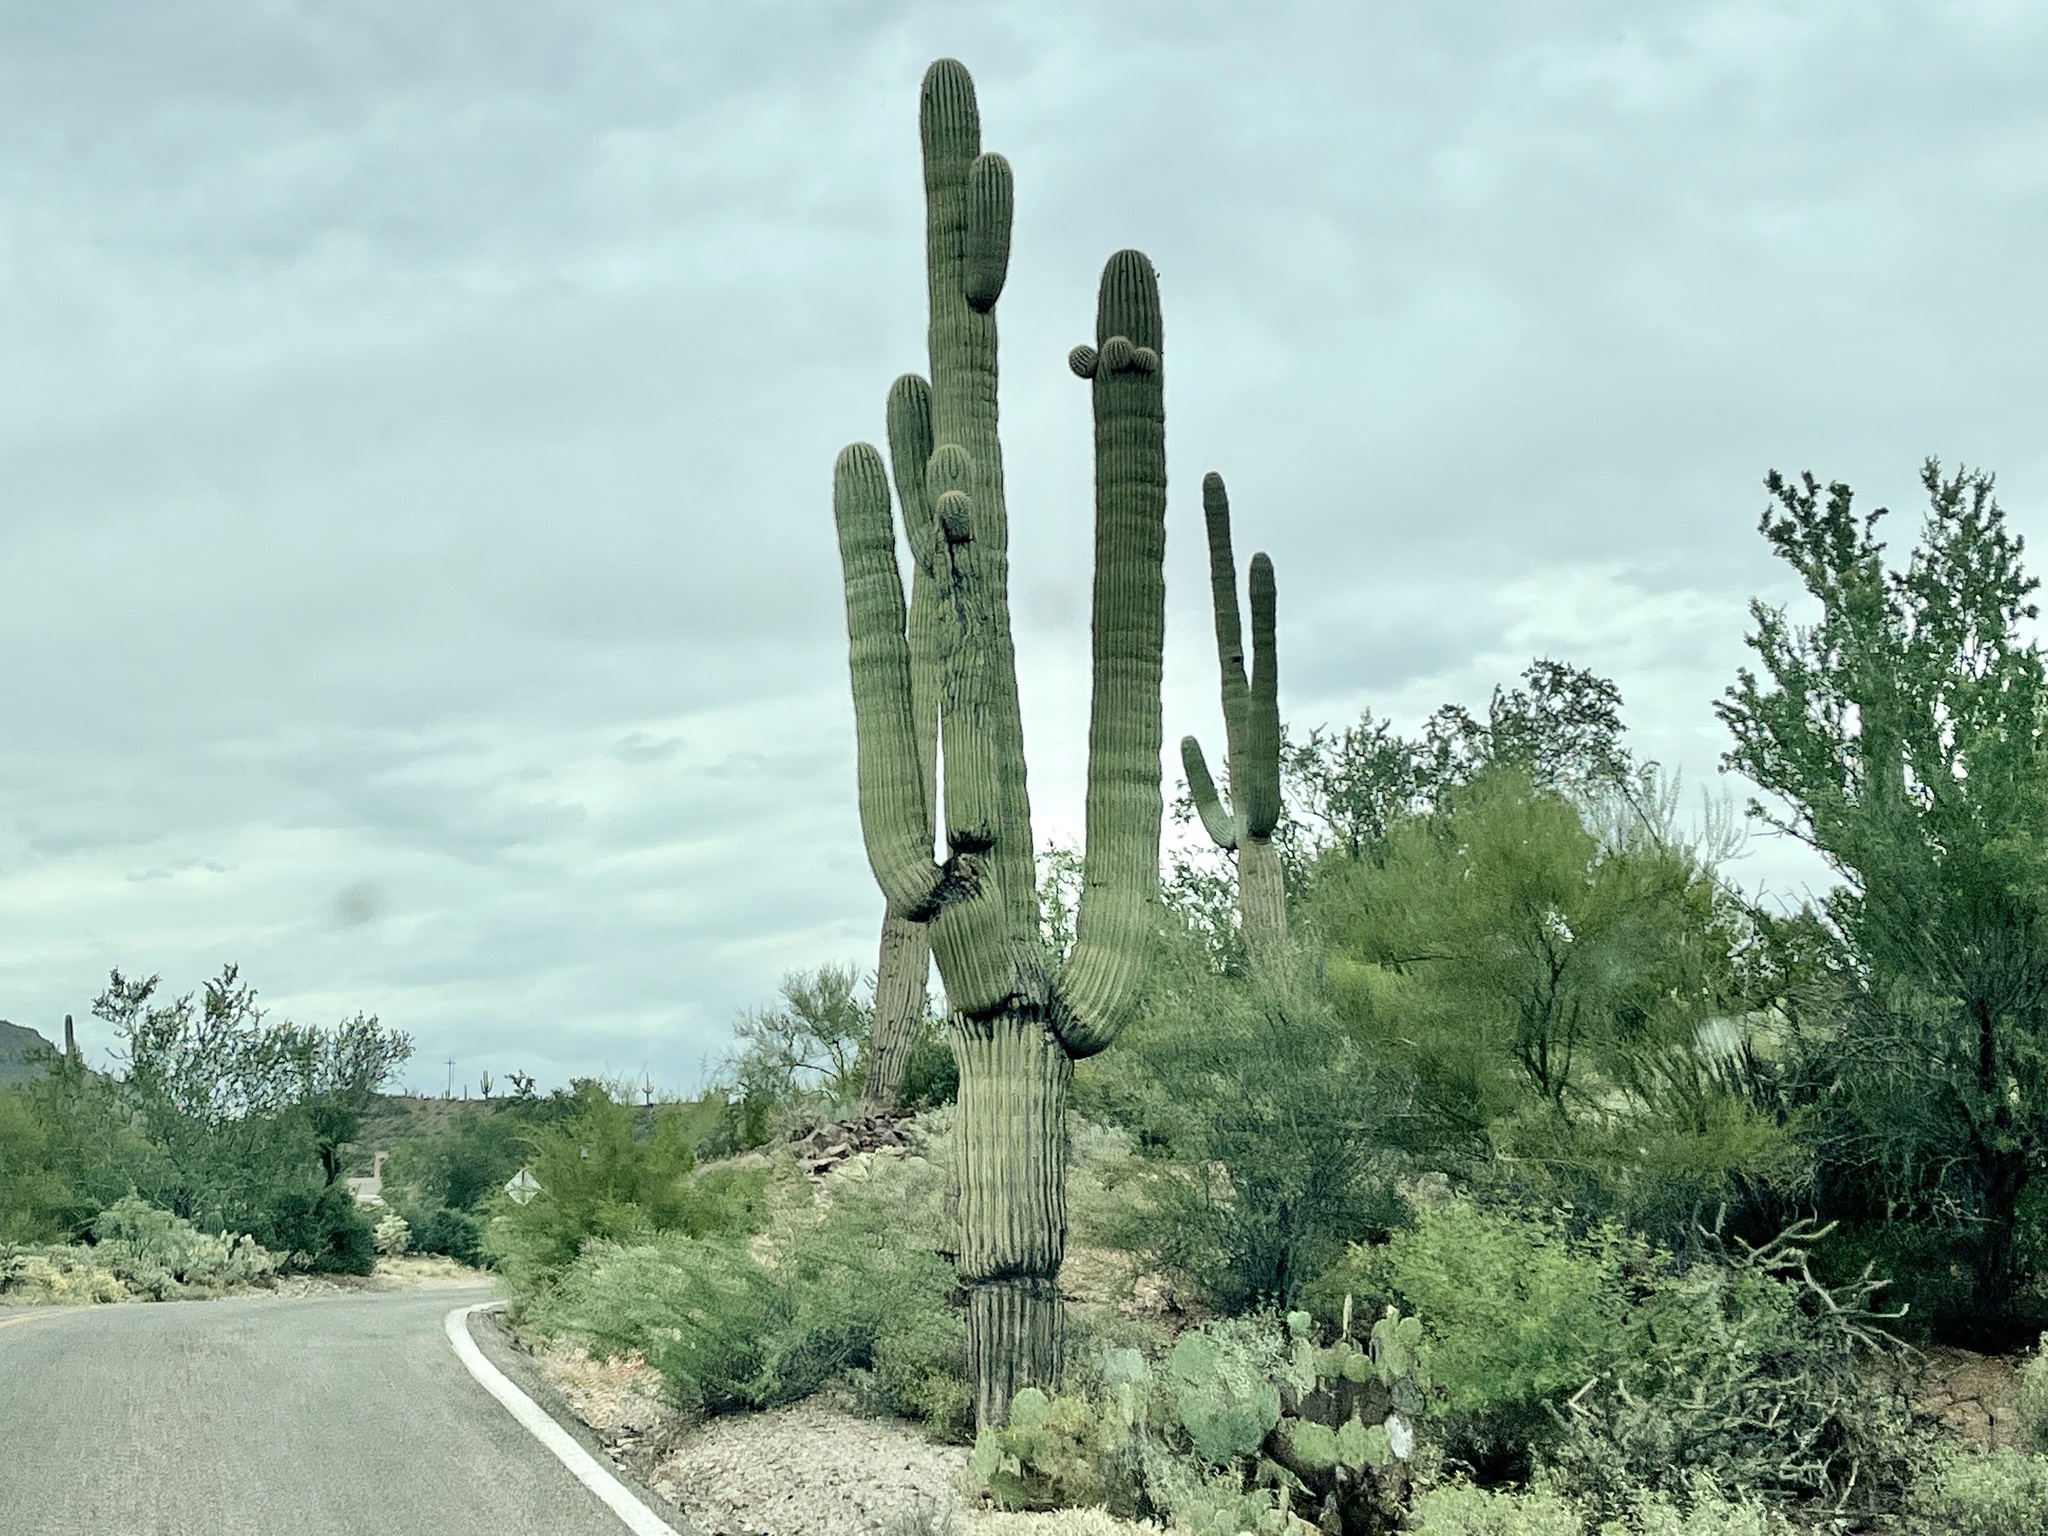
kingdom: Plantae
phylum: Tracheophyta
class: Magnoliopsida
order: Caryophyllales
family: Cactaceae
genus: Carnegiea
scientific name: Carnegiea gigantea
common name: Saguaro
